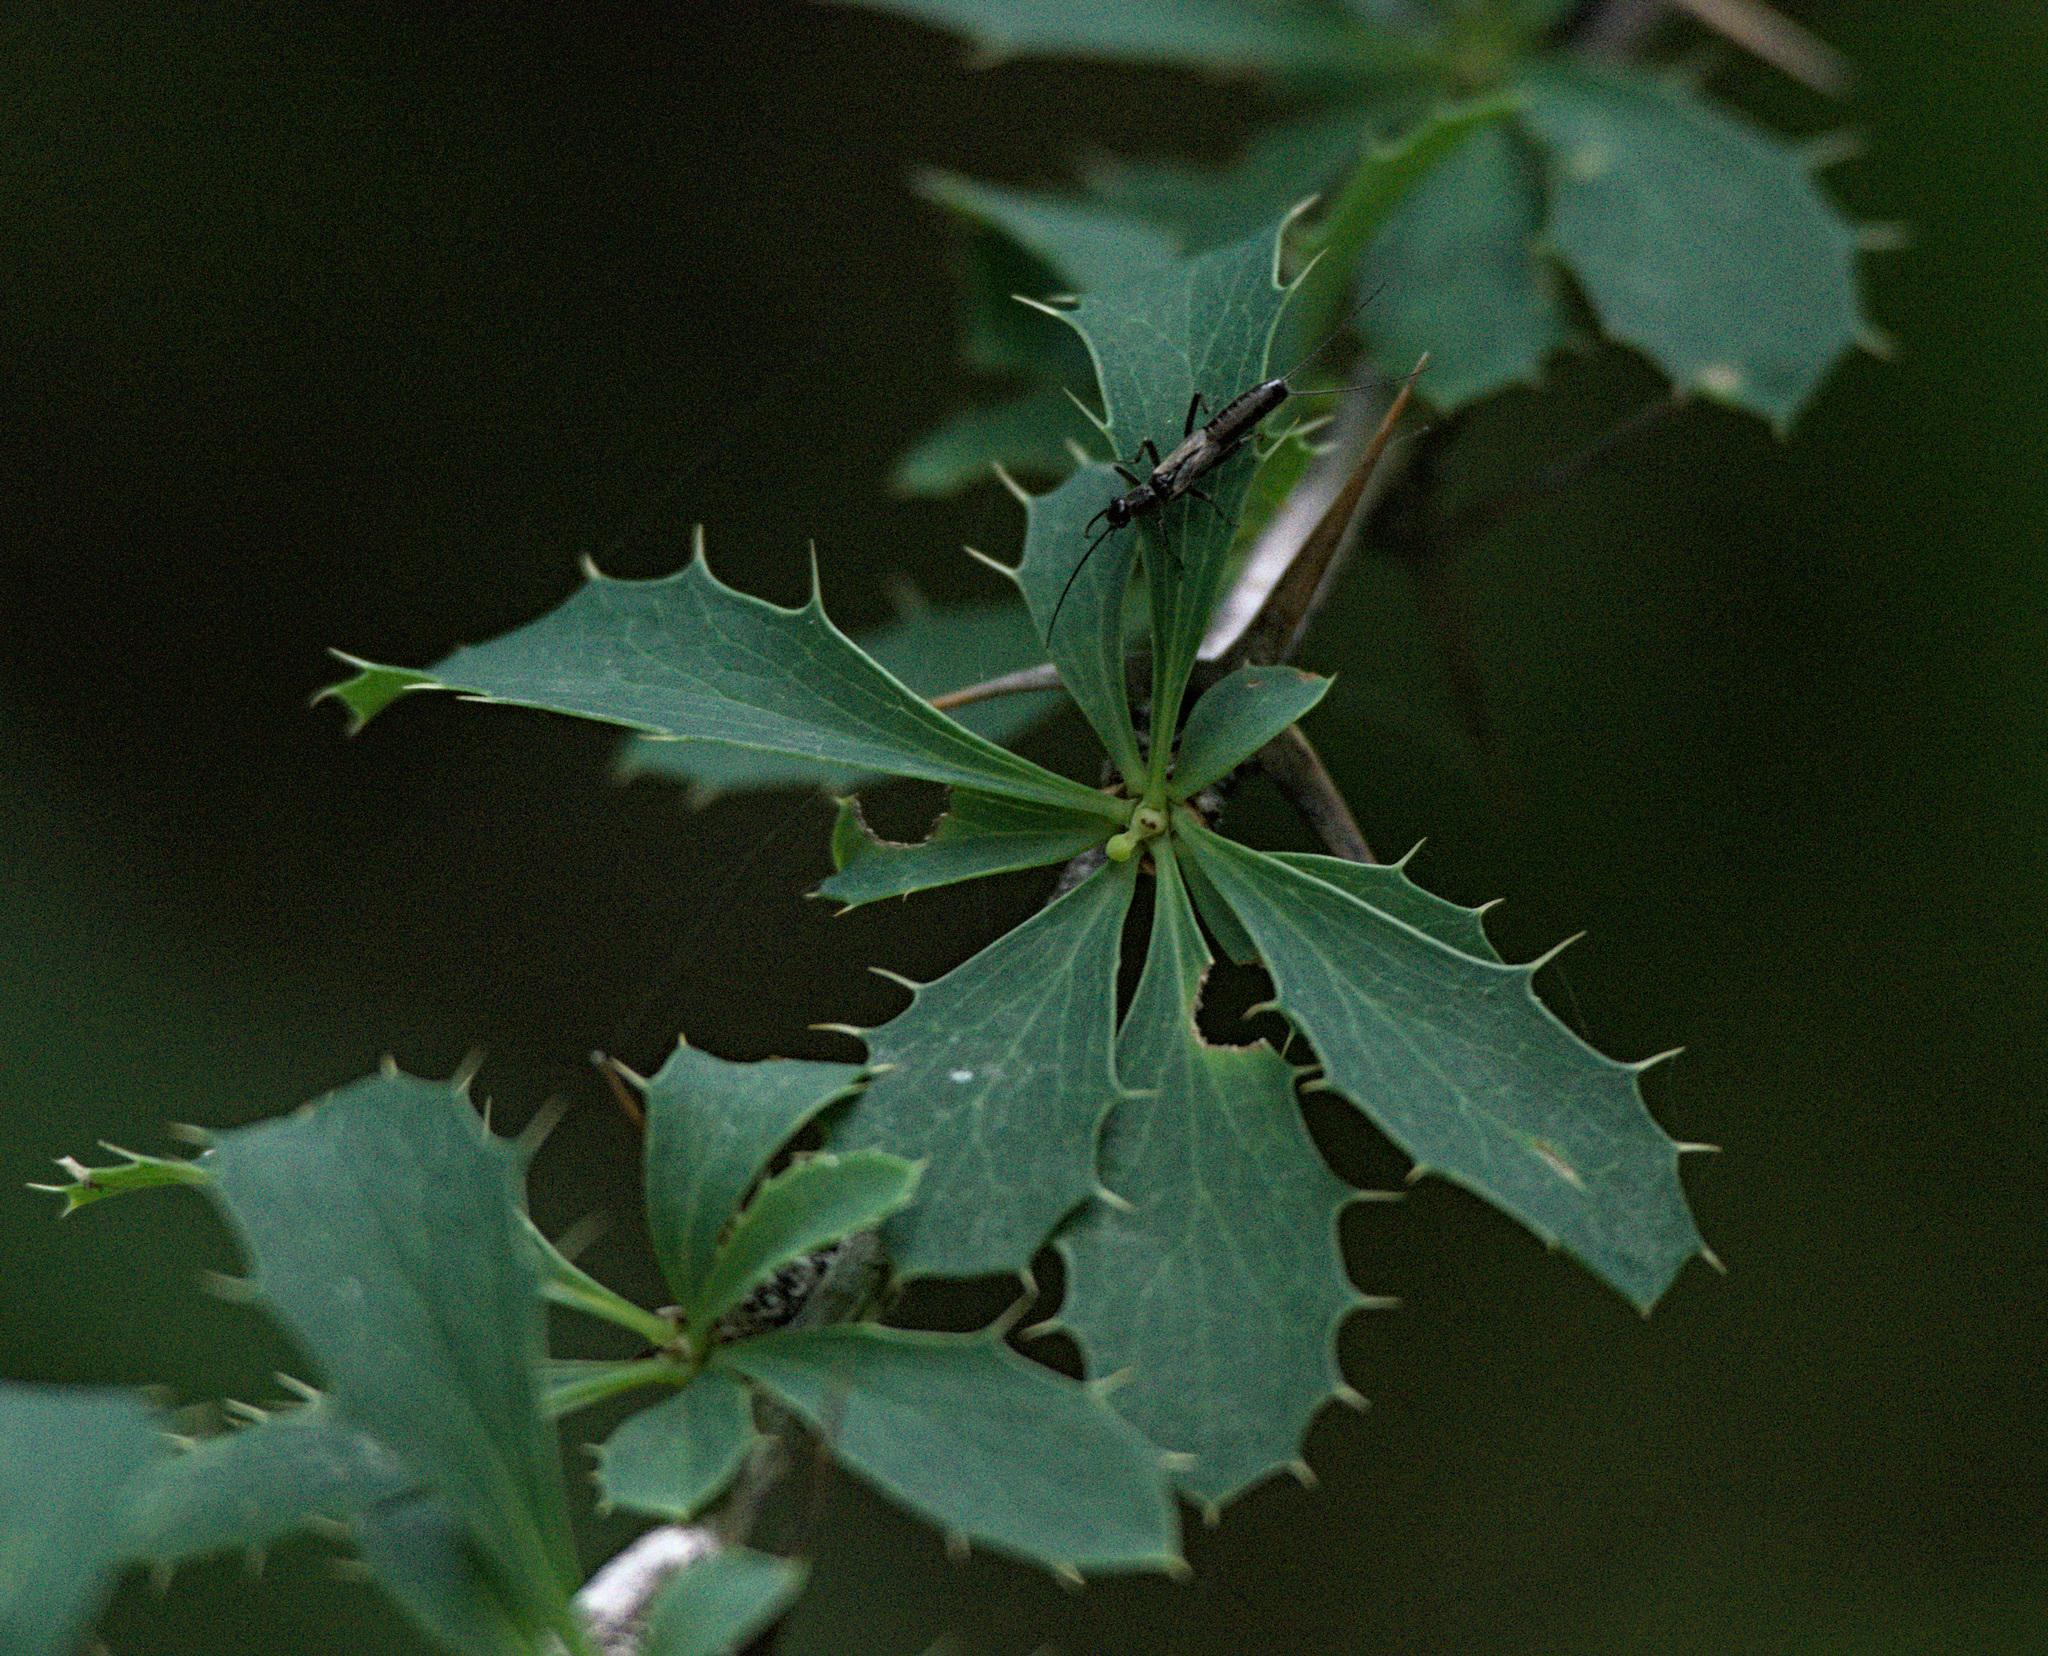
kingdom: Plantae
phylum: Tracheophyta
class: Magnoliopsida
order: Ranunculales
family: Berberidaceae
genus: Berberis
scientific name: Berberis sibirica
